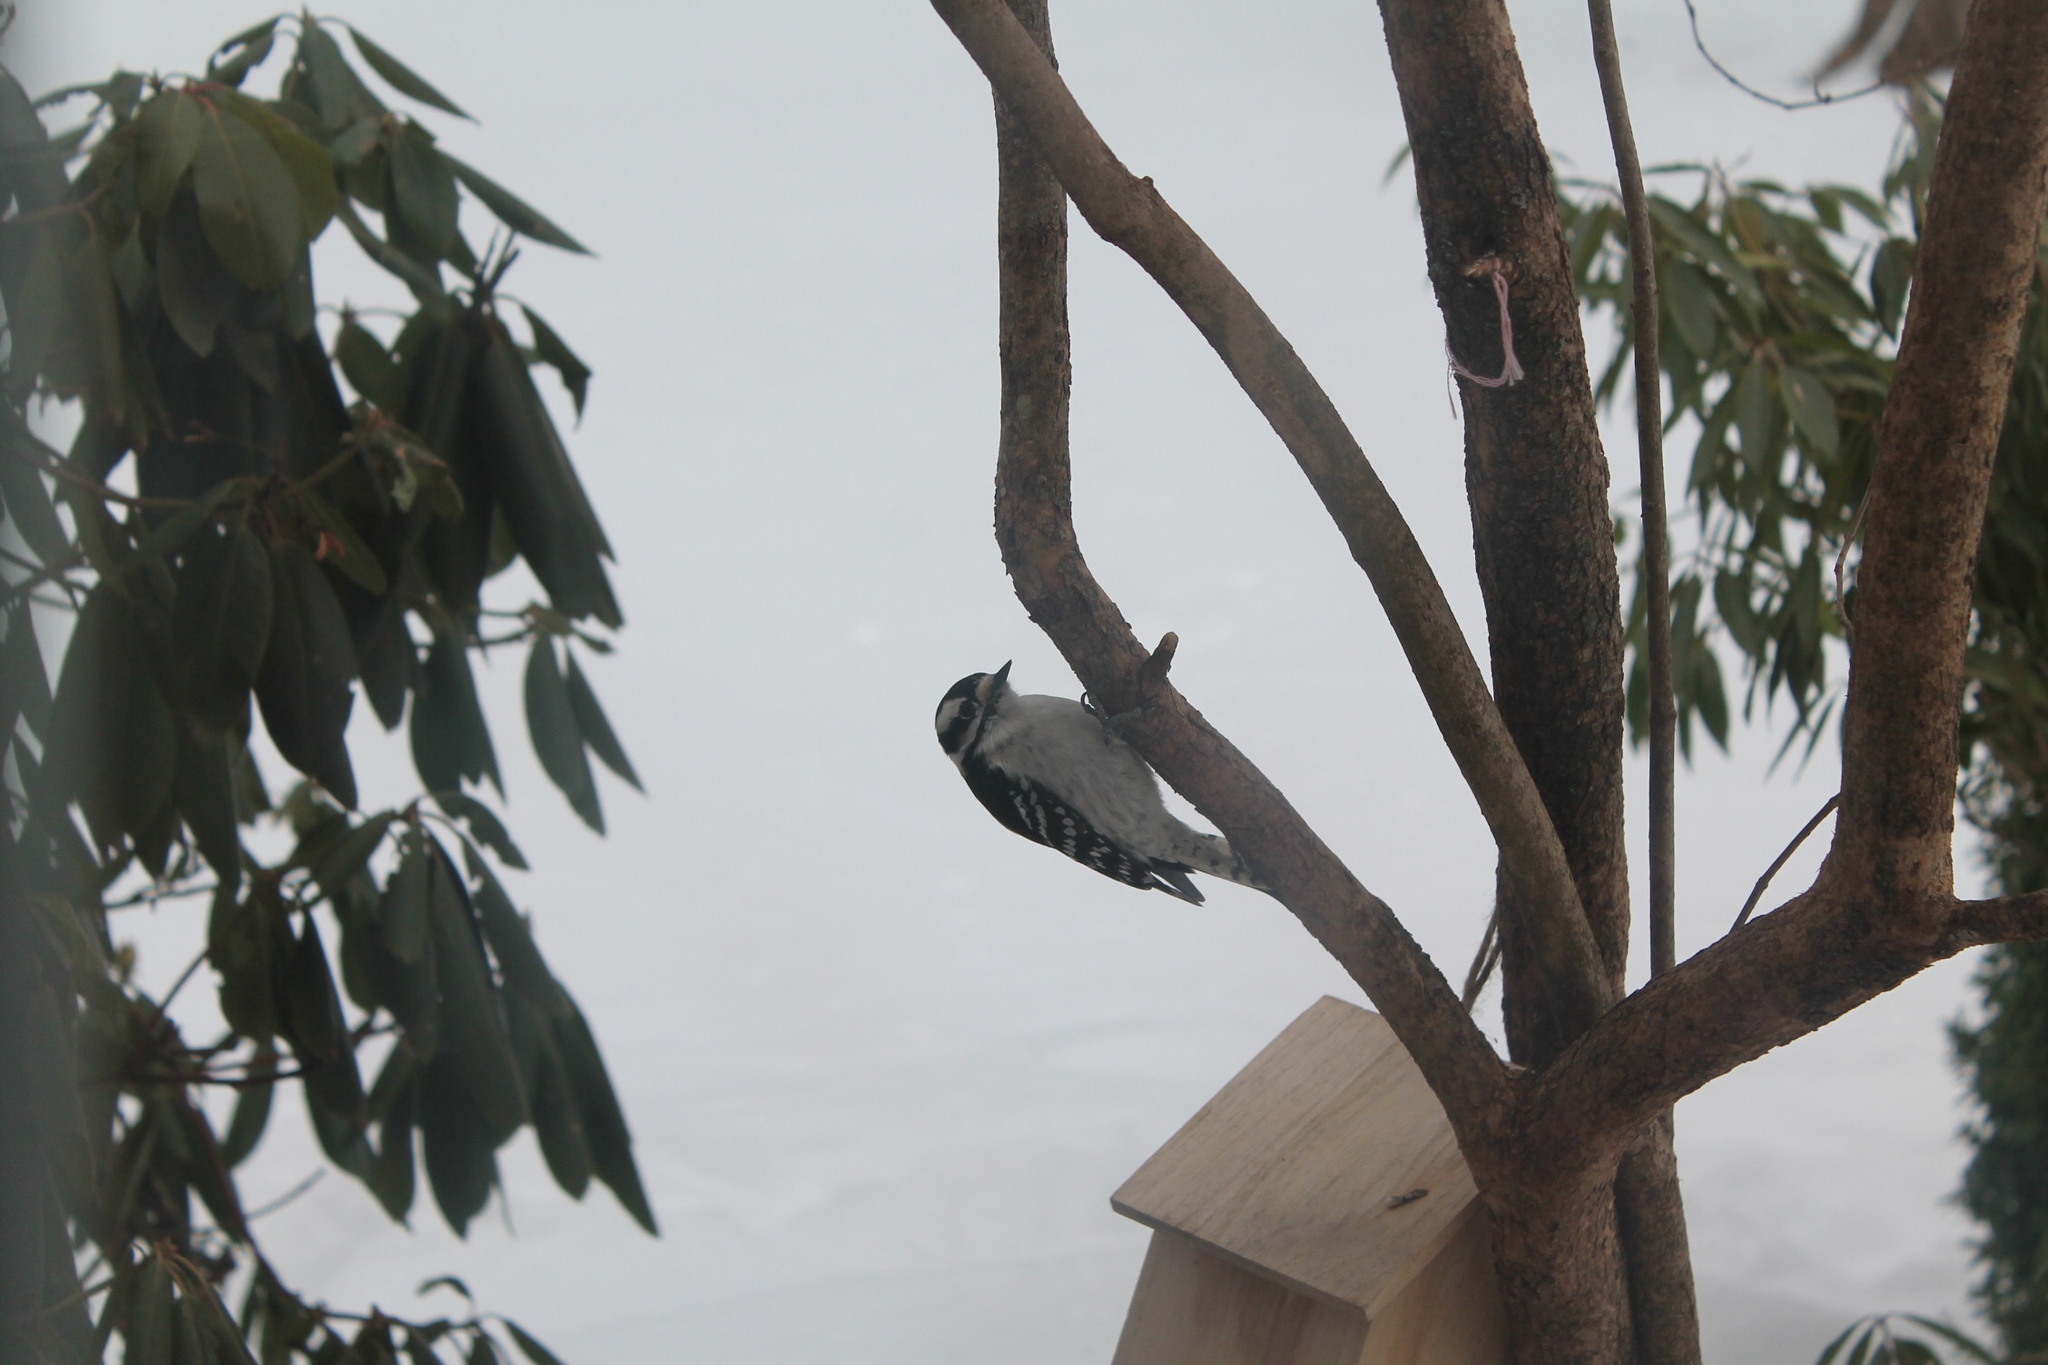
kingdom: Animalia
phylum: Chordata
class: Aves
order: Piciformes
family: Picidae
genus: Dryobates
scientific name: Dryobates pubescens
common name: Downy woodpecker
